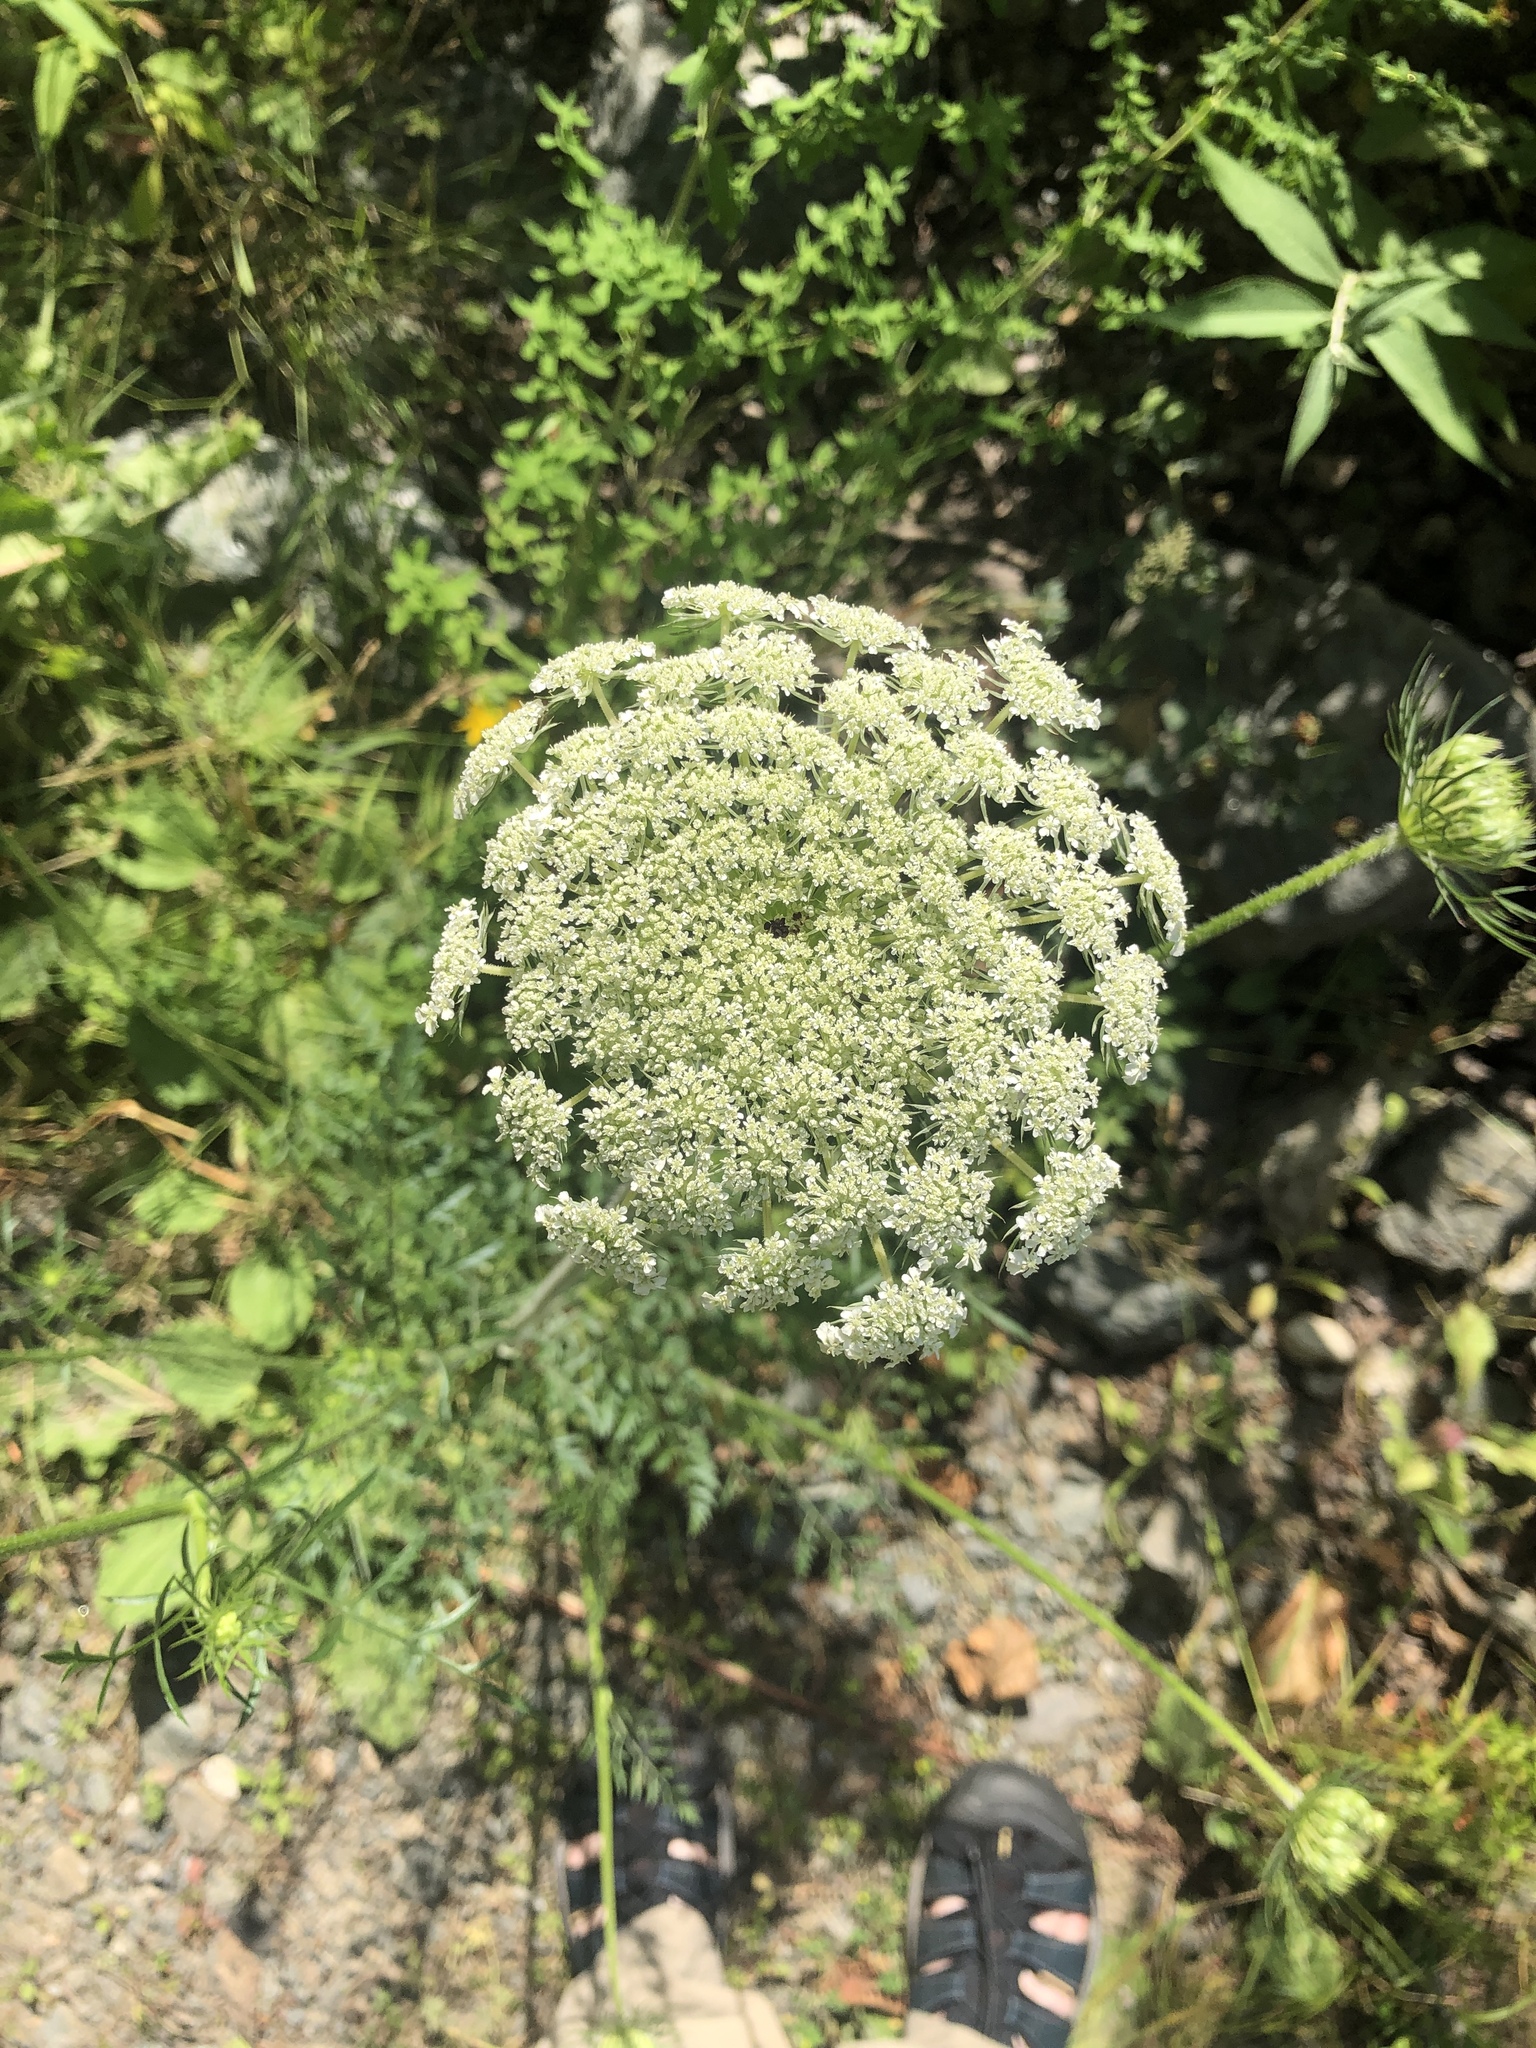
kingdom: Plantae
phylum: Tracheophyta
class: Magnoliopsida
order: Apiales
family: Apiaceae
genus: Daucus
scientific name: Daucus carota
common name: Wild carrot
